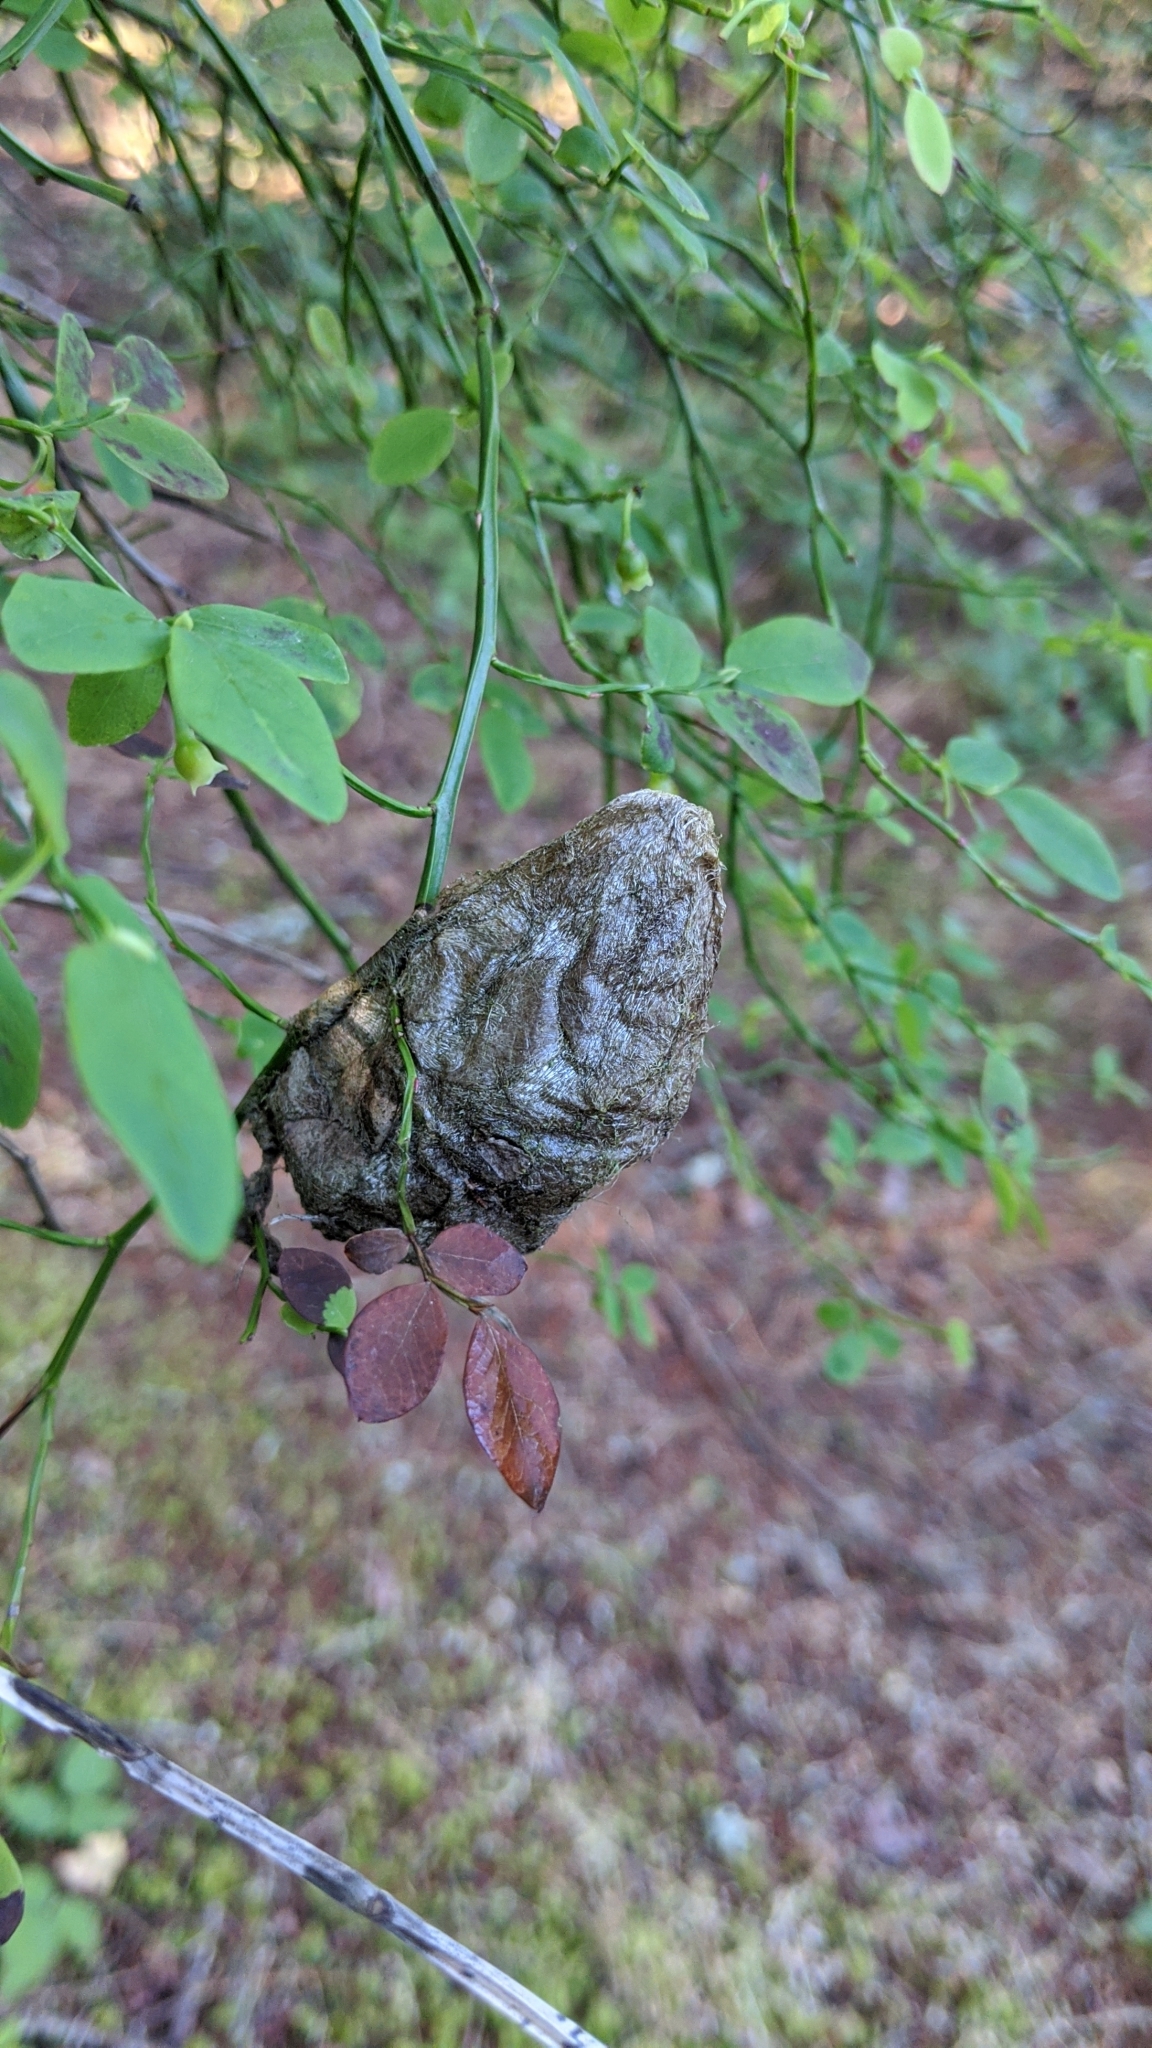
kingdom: Animalia
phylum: Arthropoda
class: Insecta
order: Lepidoptera
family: Saturniidae
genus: Hyalophora
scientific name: Hyalophora euryalus
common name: Ceanothus silkmoth
